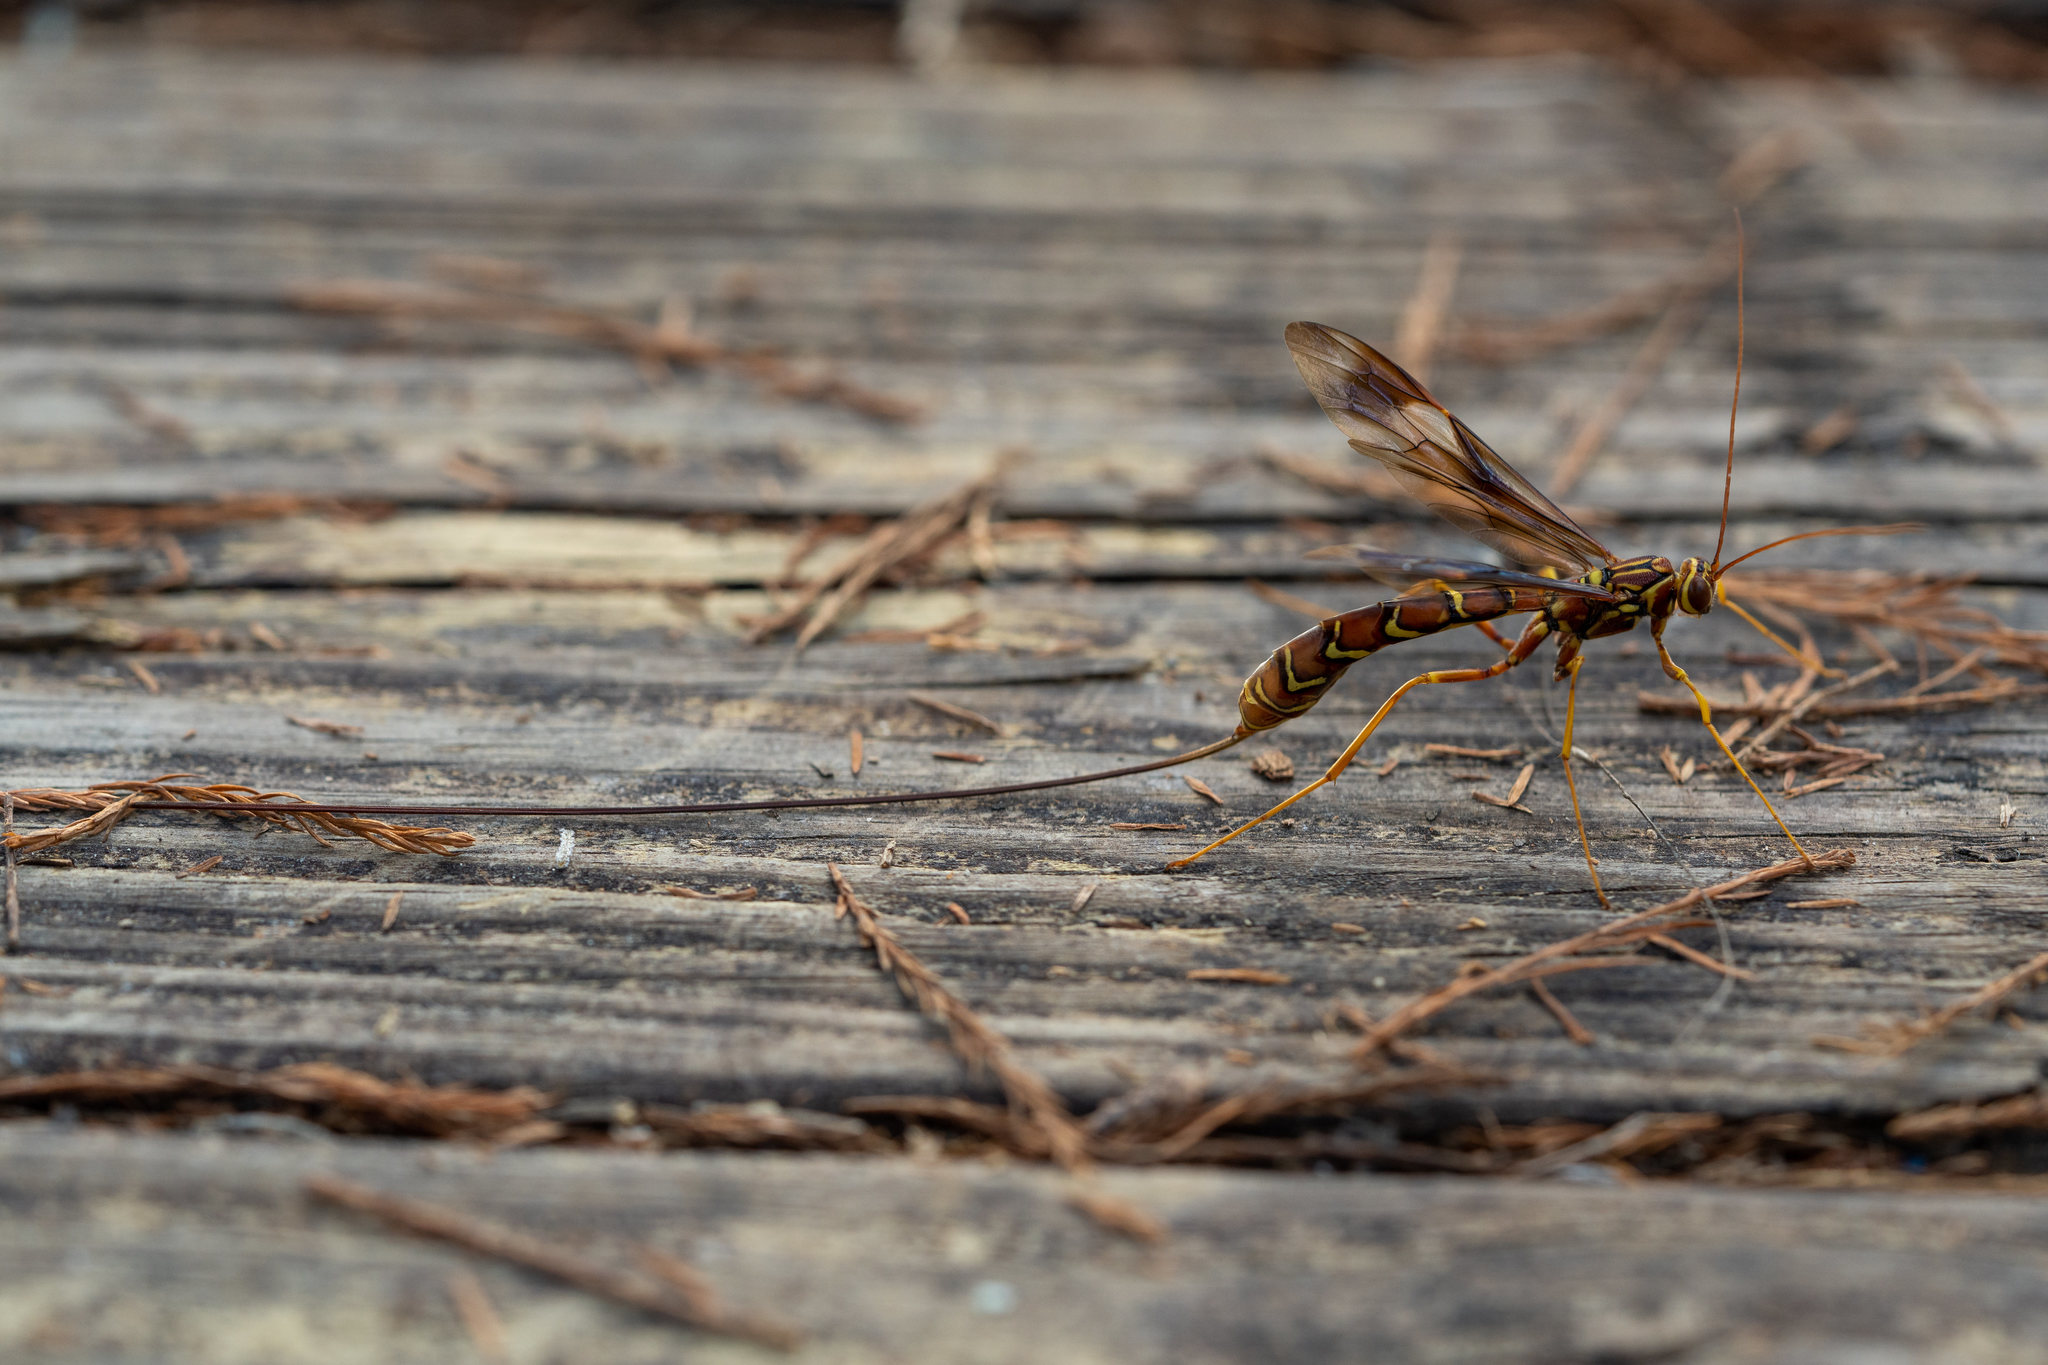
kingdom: Animalia
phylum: Arthropoda
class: Insecta
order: Hymenoptera
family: Ichneumonidae
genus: Megarhyssa
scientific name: Megarhyssa macrura
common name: Long-tailed giant ichneumonid wasp
